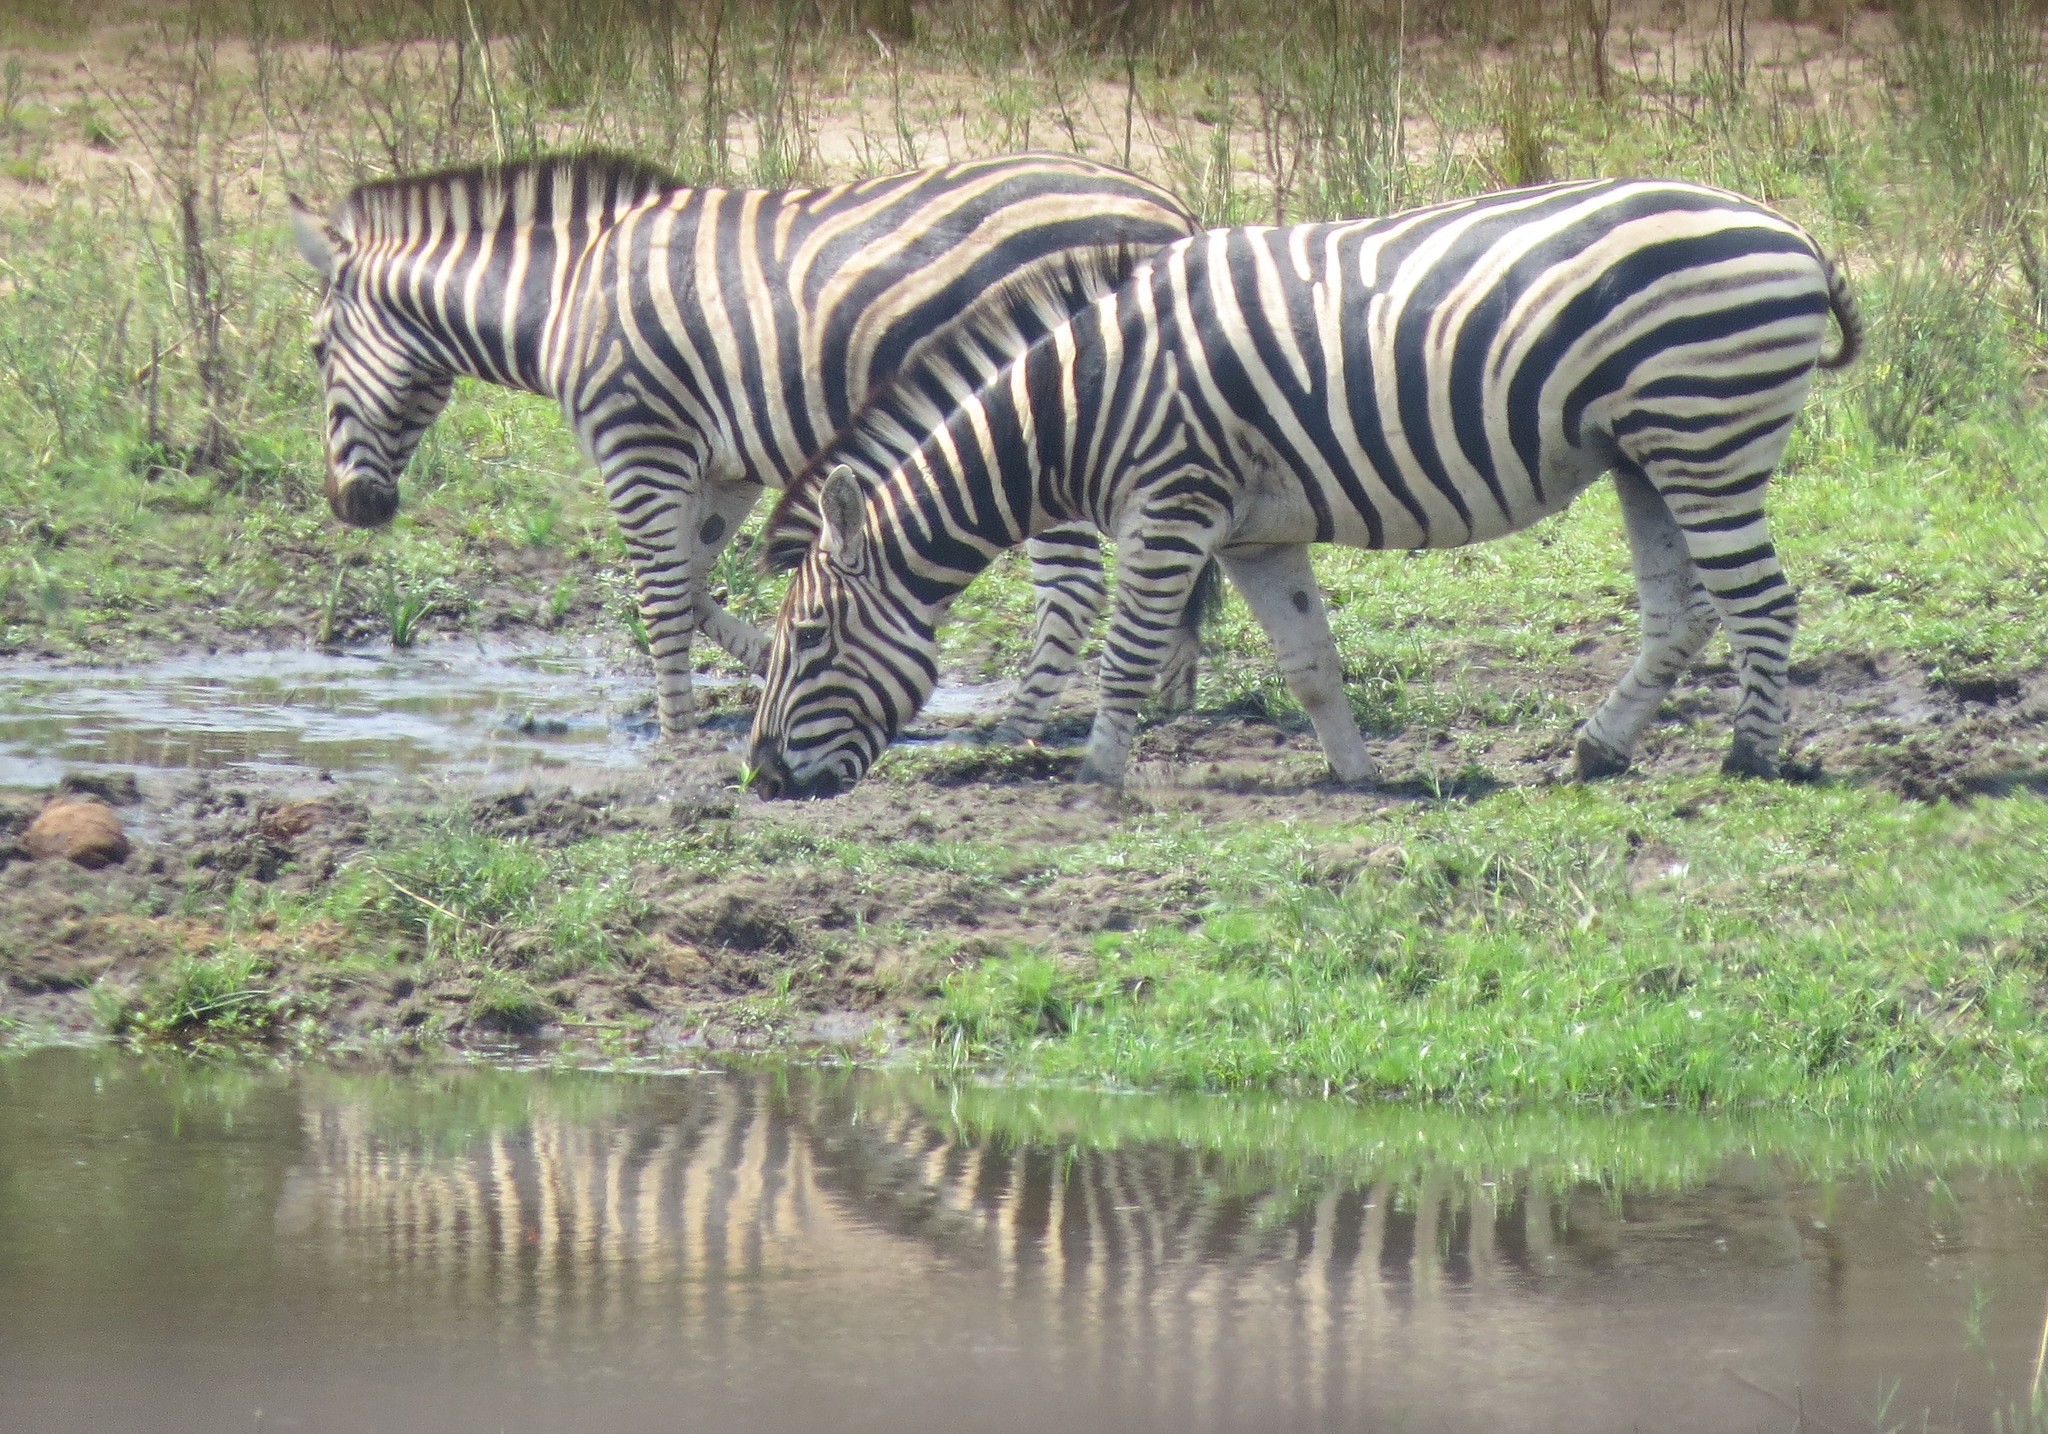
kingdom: Animalia
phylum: Chordata
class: Mammalia
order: Perissodactyla
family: Equidae
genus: Equus
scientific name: Equus quagga
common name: Plains zebra
